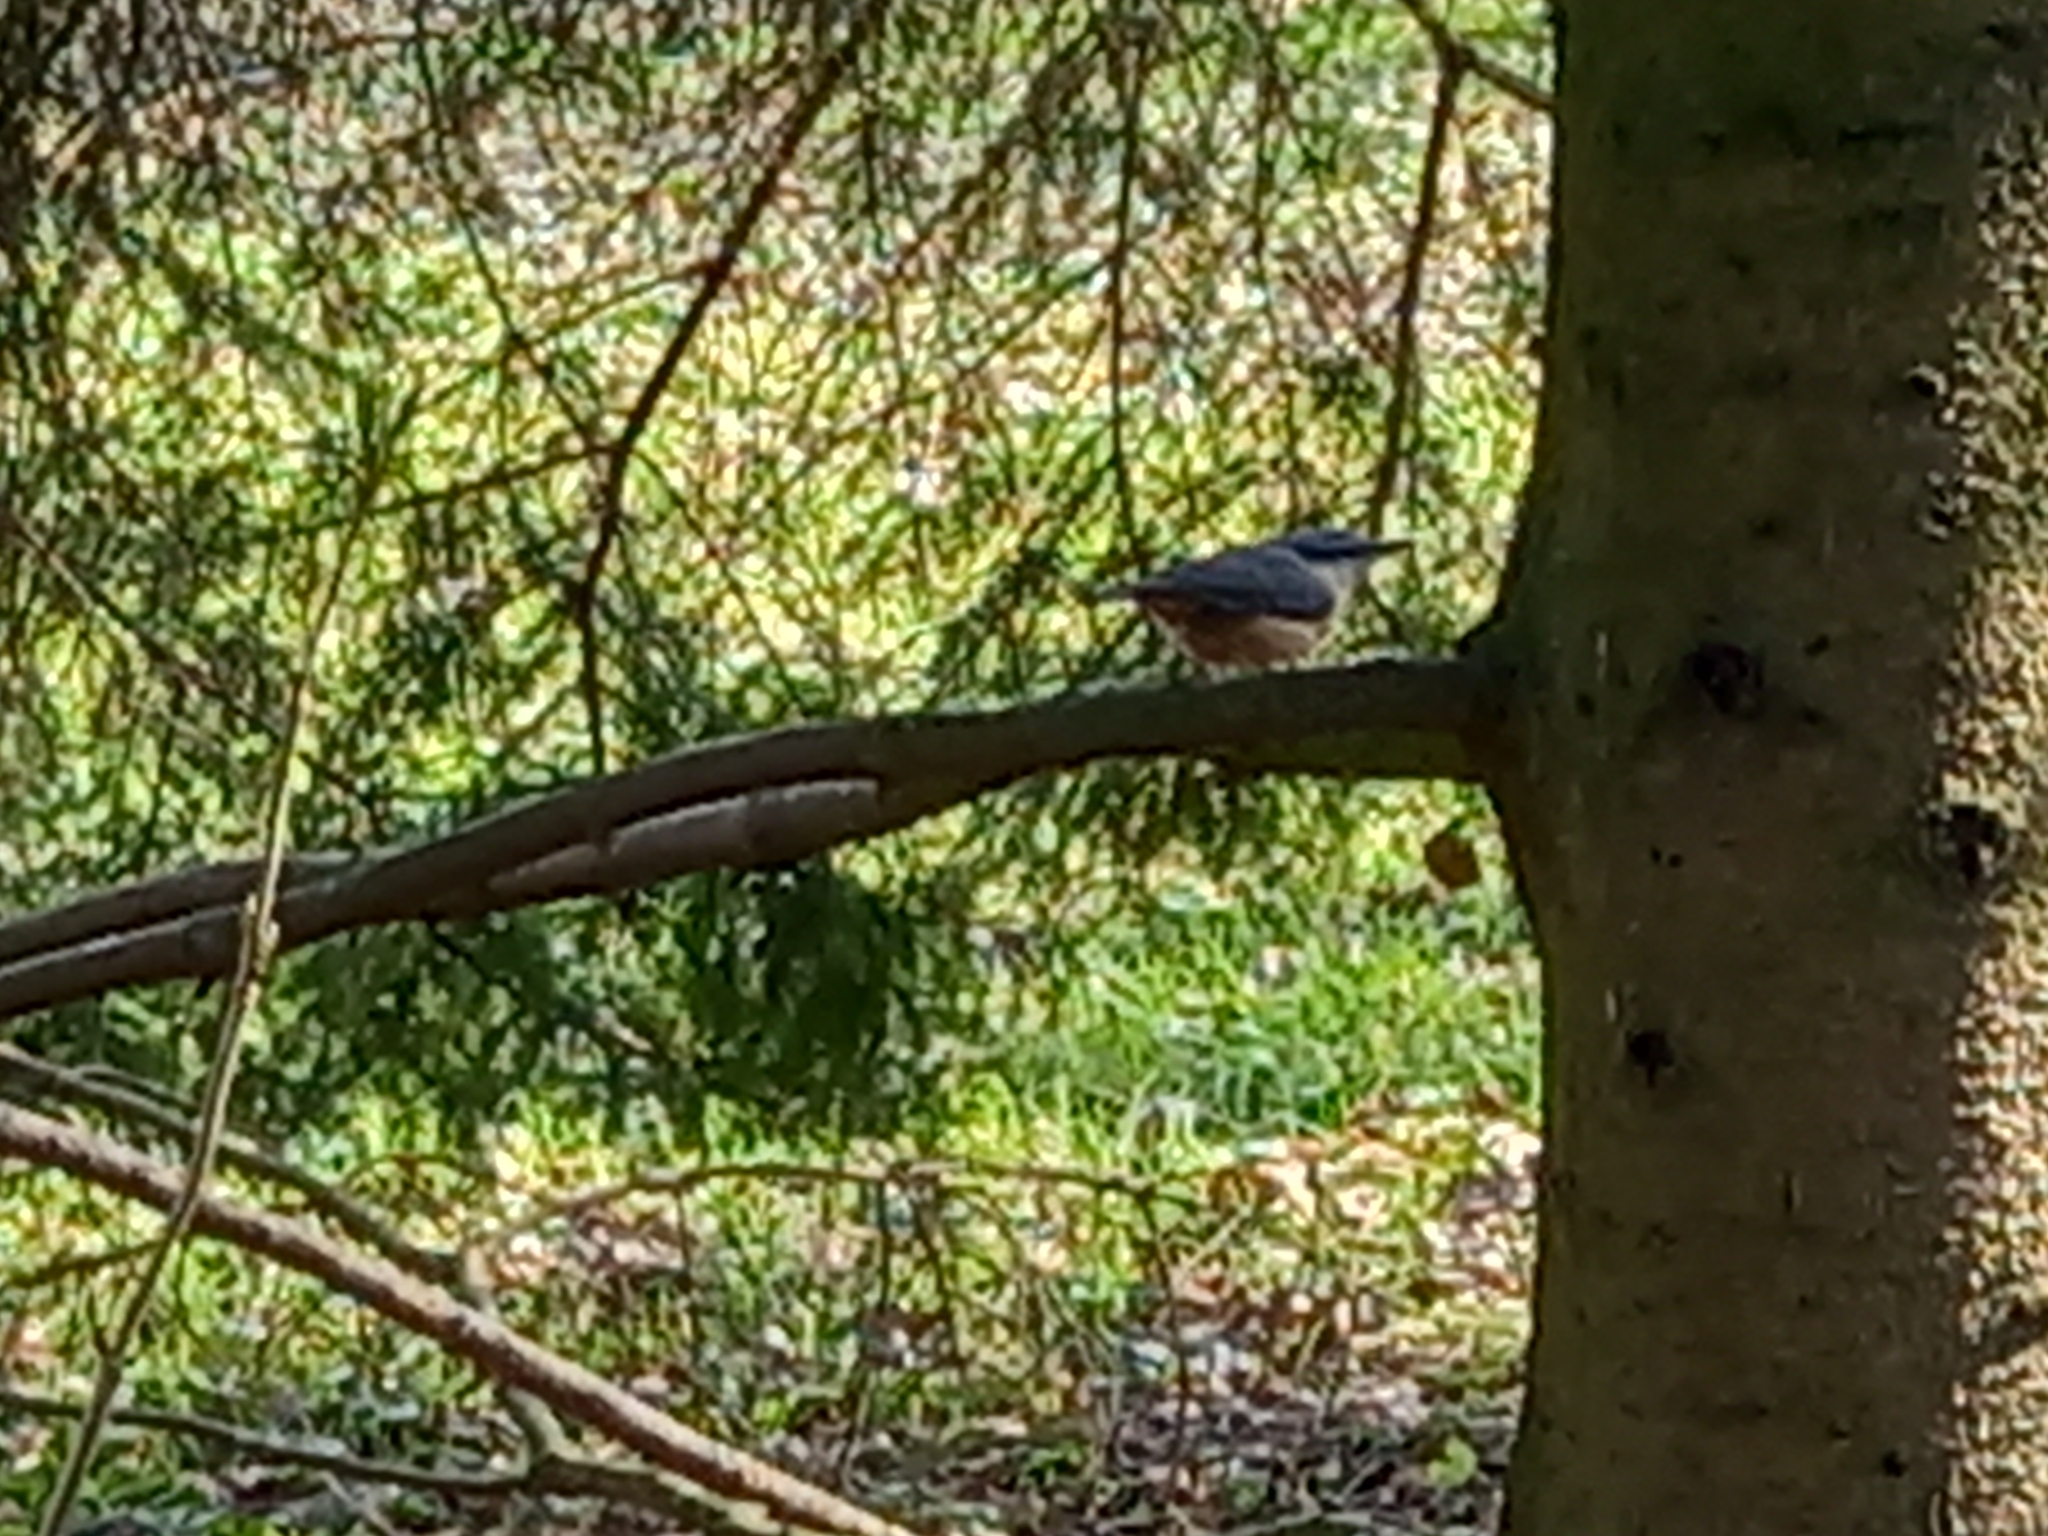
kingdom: Animalia
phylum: Chordata
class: Aves
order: Passeriformes
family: Sittidae
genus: Sitta
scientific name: Sitta europaea
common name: Eurasian nuthatch
